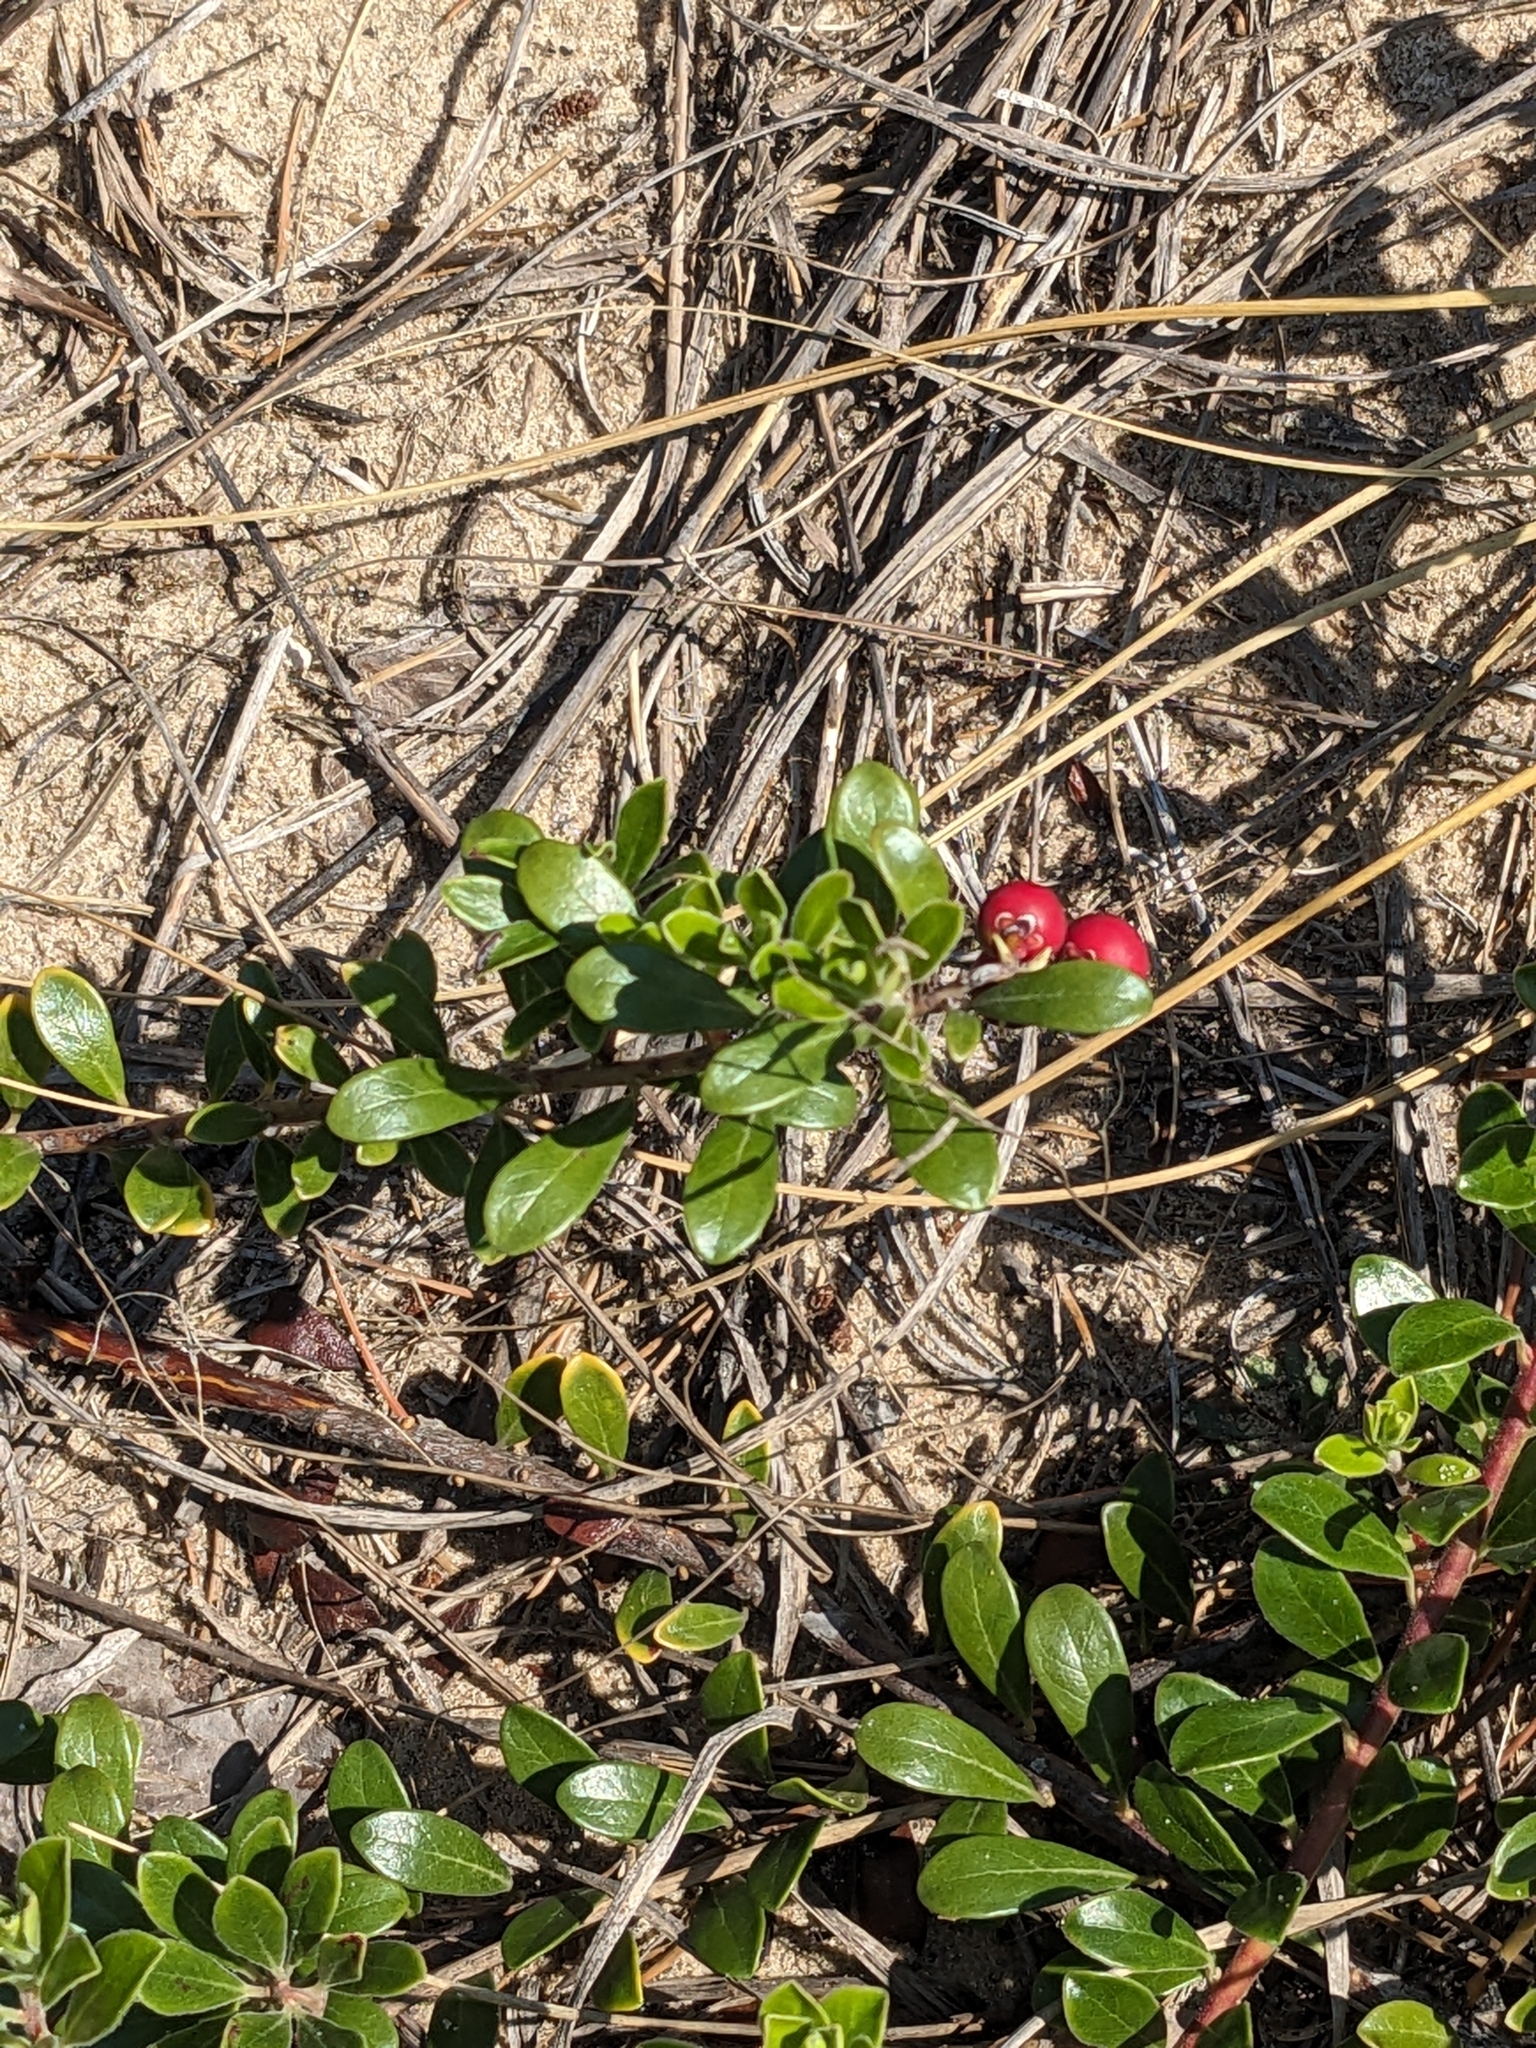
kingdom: Plantae
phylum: Tracheophyta
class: Magnoliopsida
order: Ericales
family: Ericaceae
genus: Arctostaphylos
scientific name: Arctostaphylos uva-ursi
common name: Bearberry
